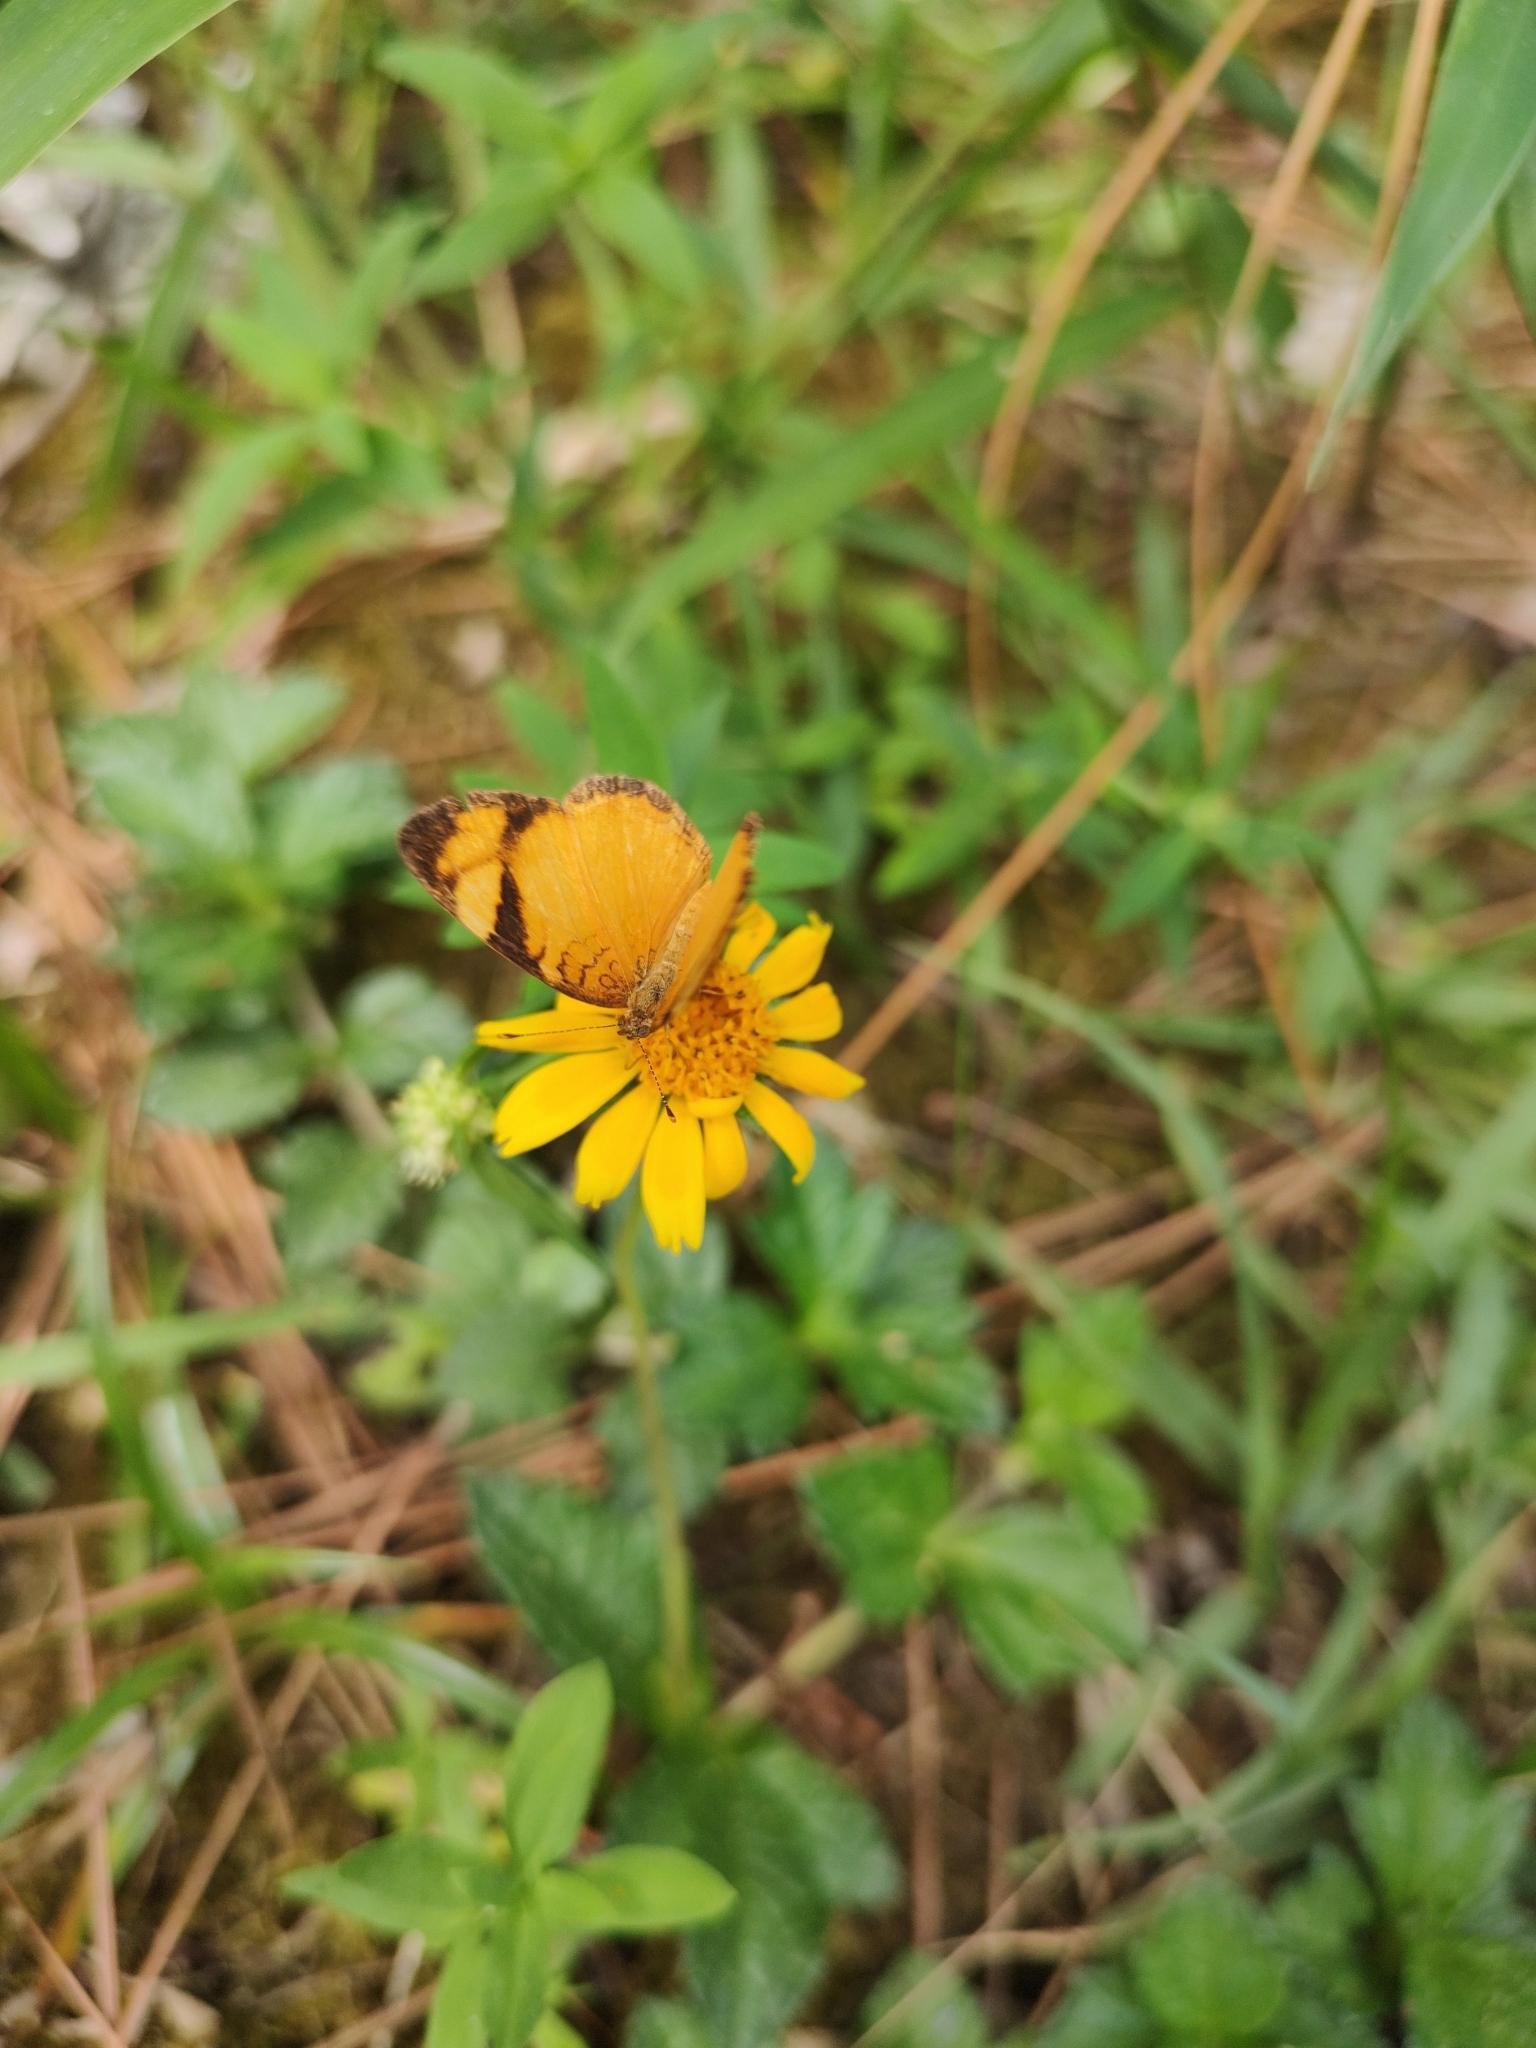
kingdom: Animalia
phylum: Arthropoda
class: Insecta
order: Lepidoptera
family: Nymphalidae
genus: Tegosa
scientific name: Tegosa claudina
